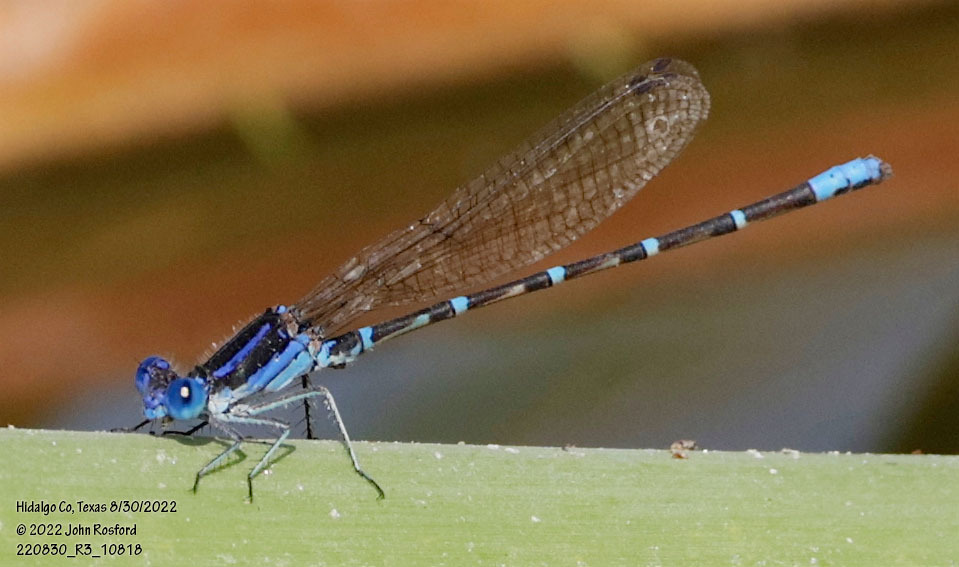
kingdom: Animalia
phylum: Arthropoda
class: Insecta
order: Odonata
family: Coenagrionidae
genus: Argia
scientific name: Argia sedula
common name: Blue-ringed dancer
